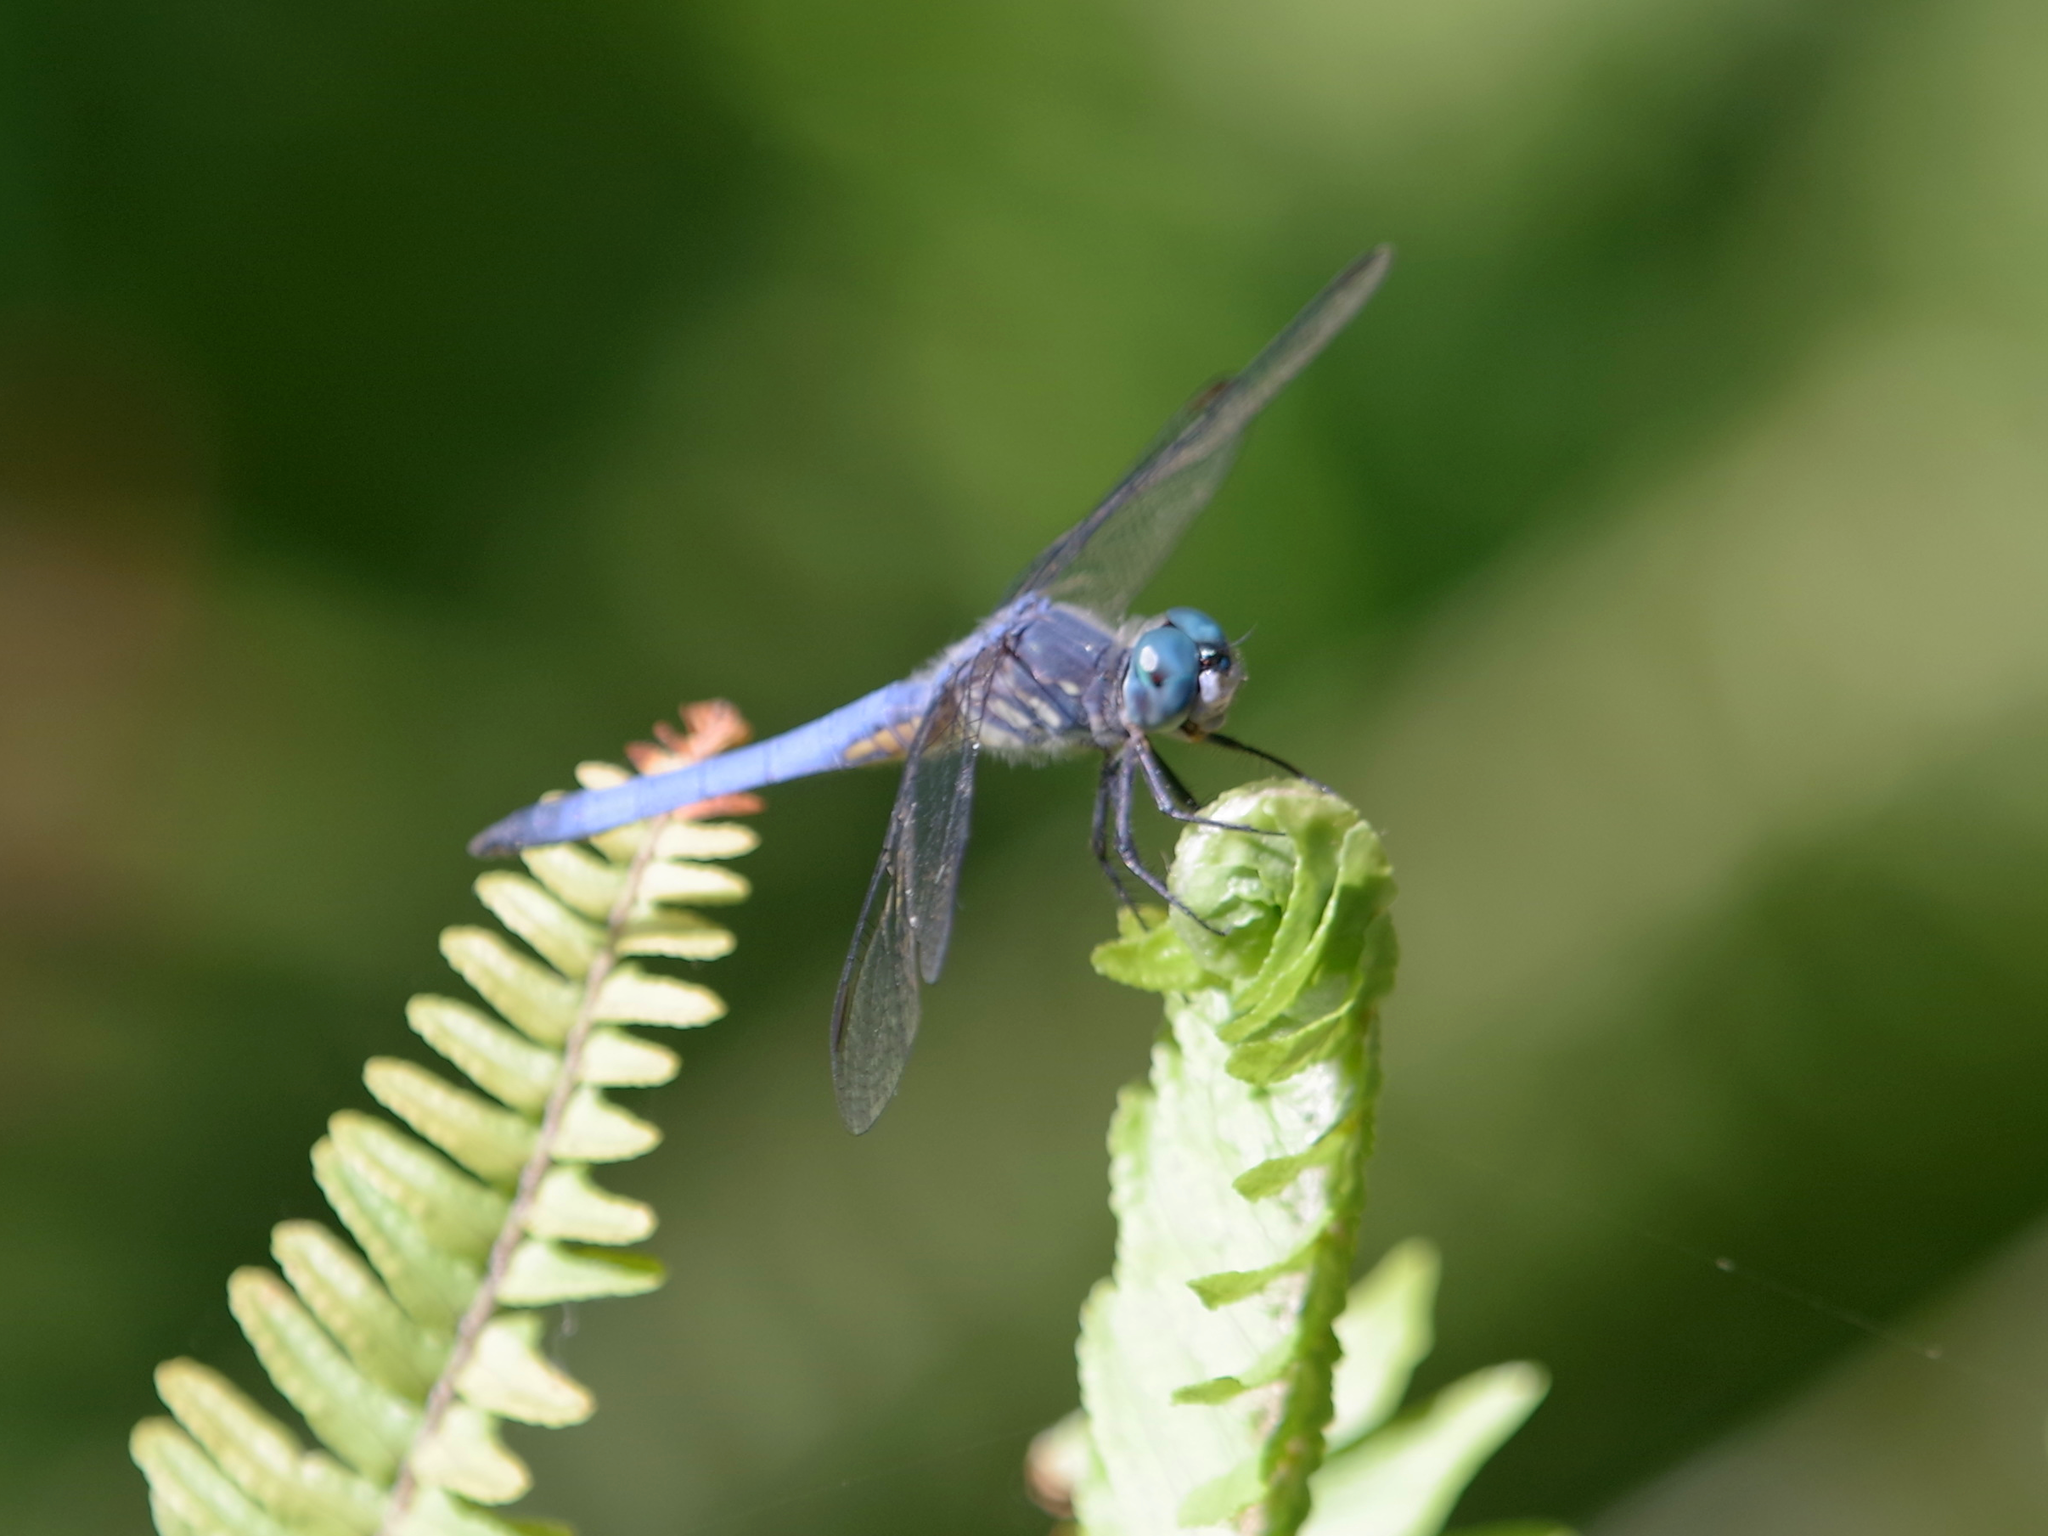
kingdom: Animalia
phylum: Arthropoda
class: Insecta
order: Odonata
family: Libellulidae
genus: Pachydiplax
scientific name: Pachydiplax longipennis
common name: Blue dasher
